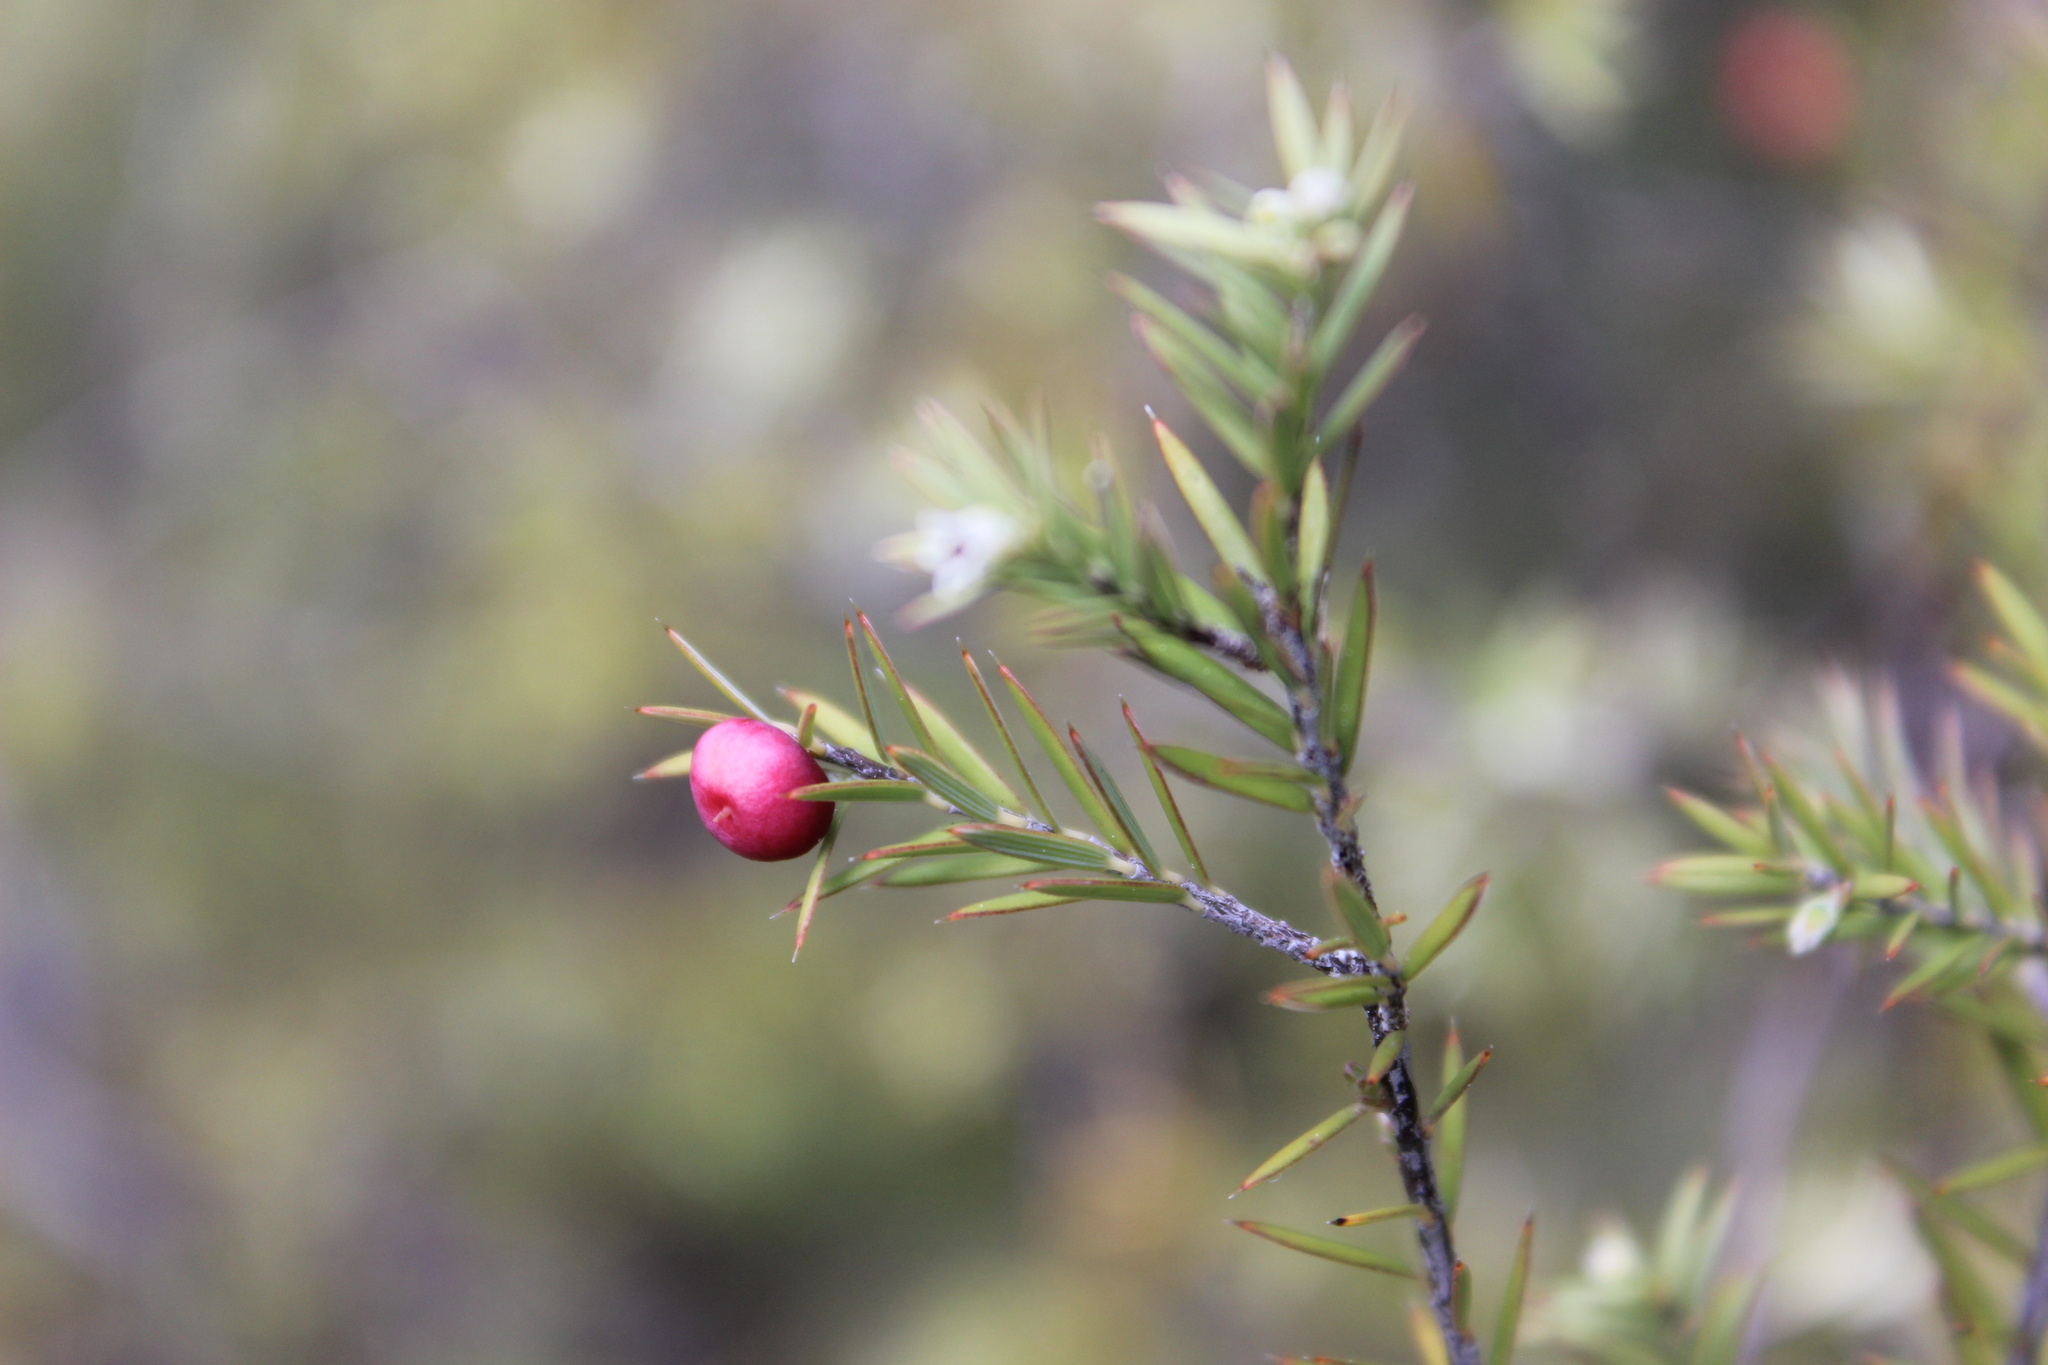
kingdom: Plantae
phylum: Tracheophyta
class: Magnoliopsida
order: Ericales
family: Ericaceae
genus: Leptecophylla
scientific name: Leptecophylla juniperina
